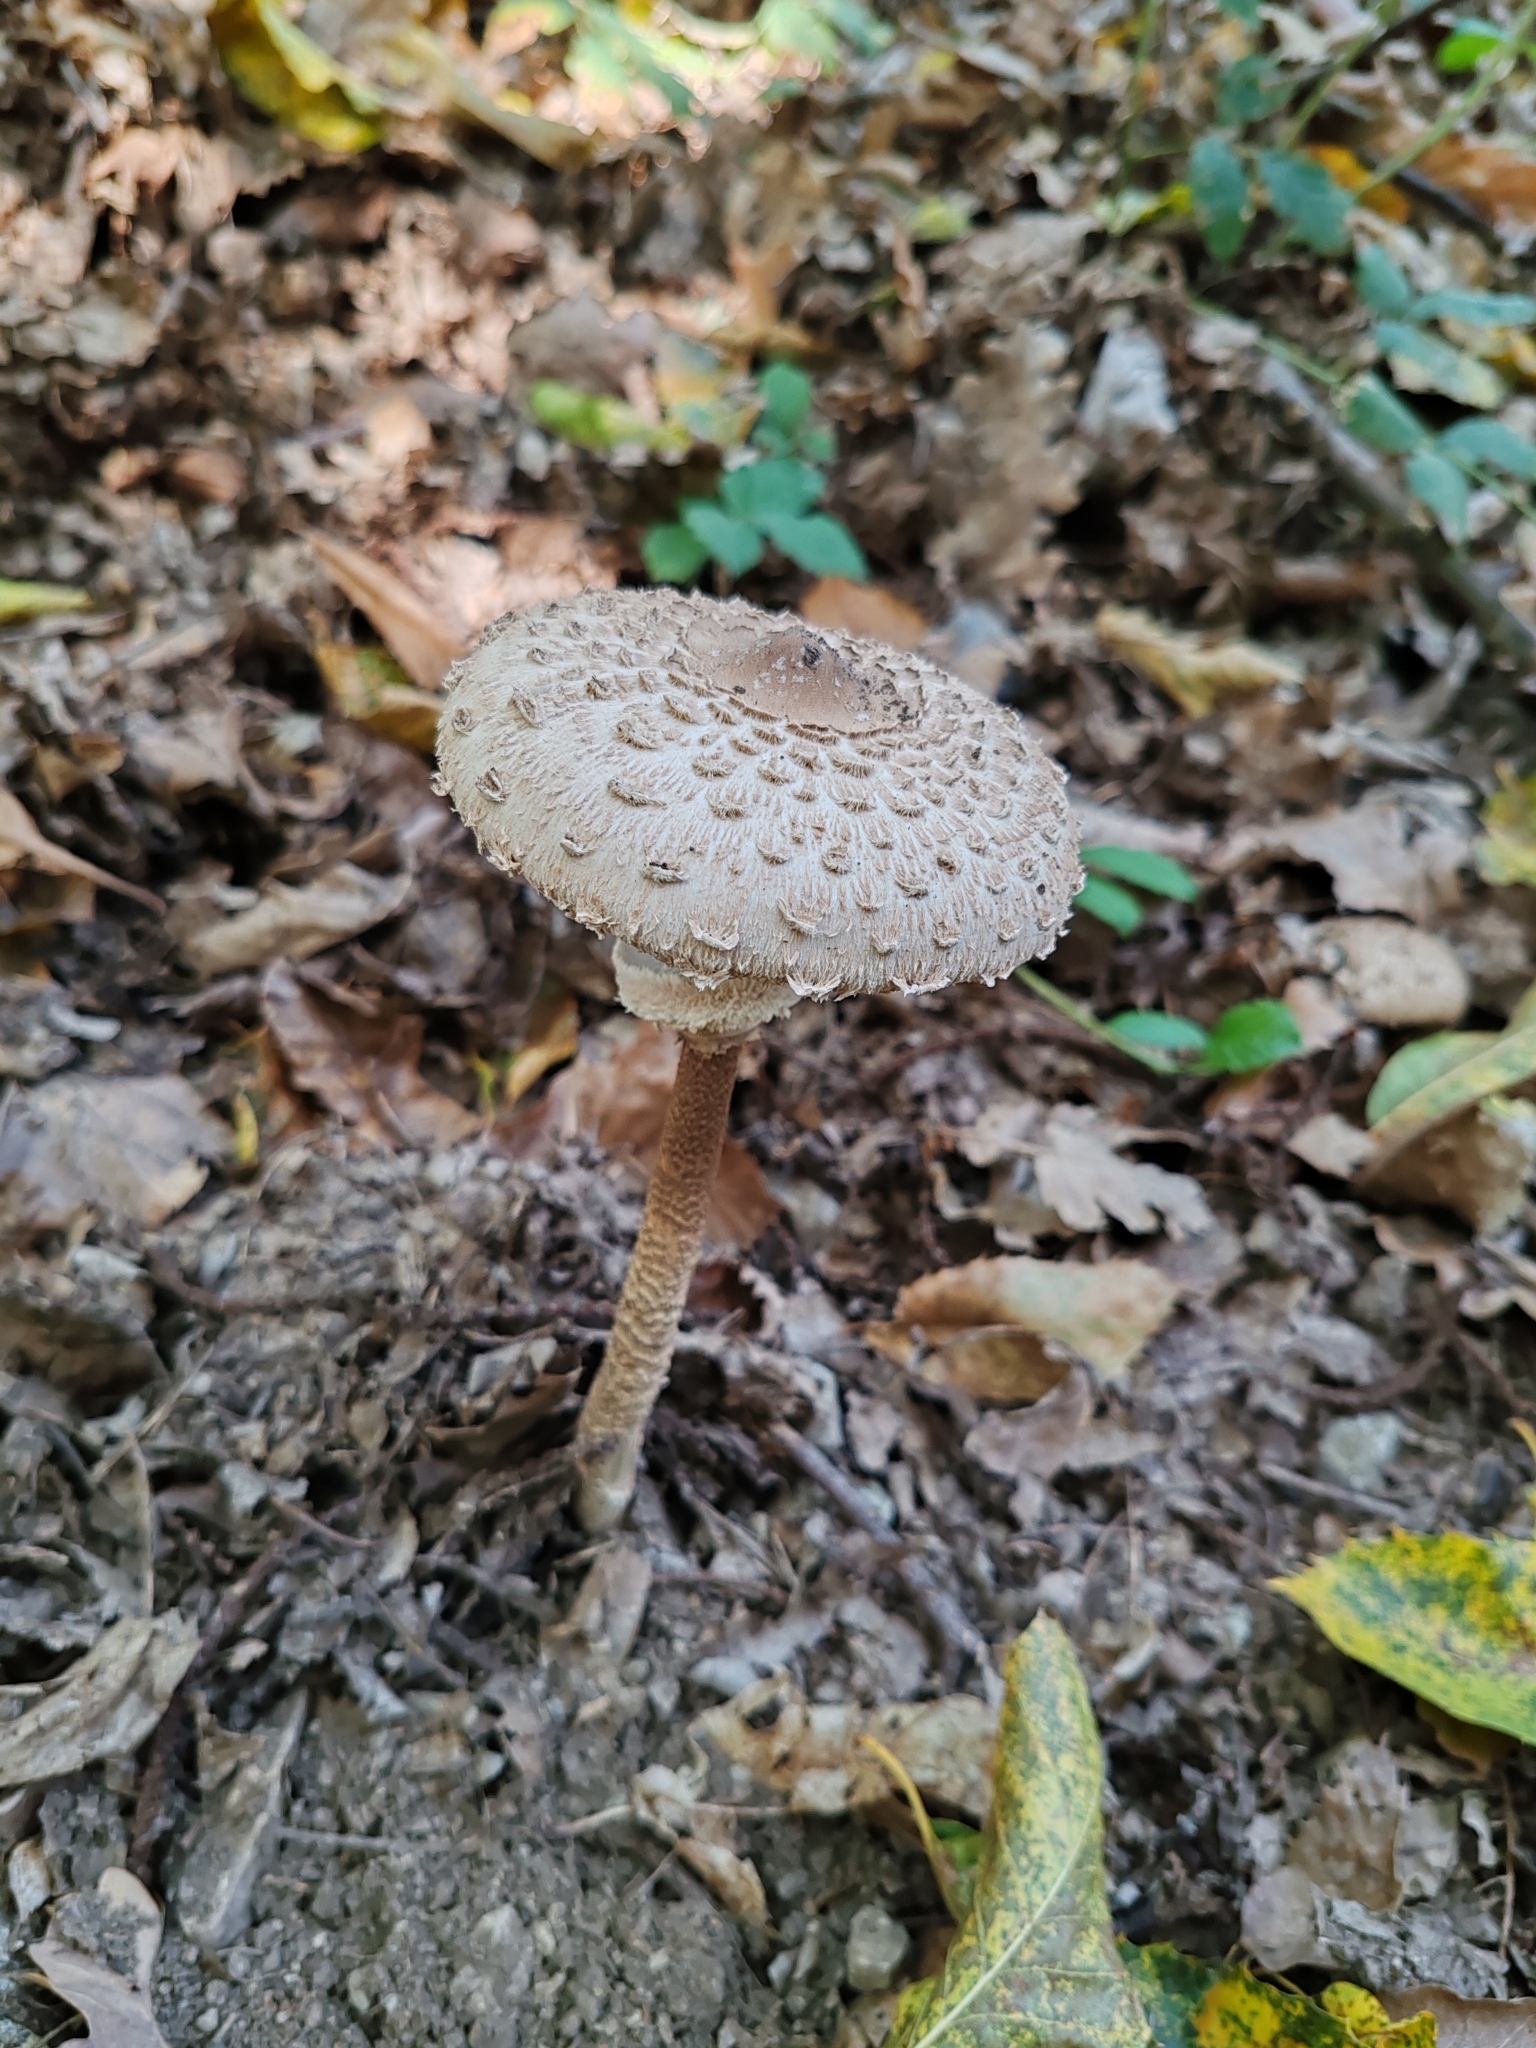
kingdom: Fungi
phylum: Basidiomycota
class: Agaricomycetes
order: Agaricales
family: Agaricaceae
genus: Macrolepiota
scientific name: Macrolepiota procera
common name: Parasol
